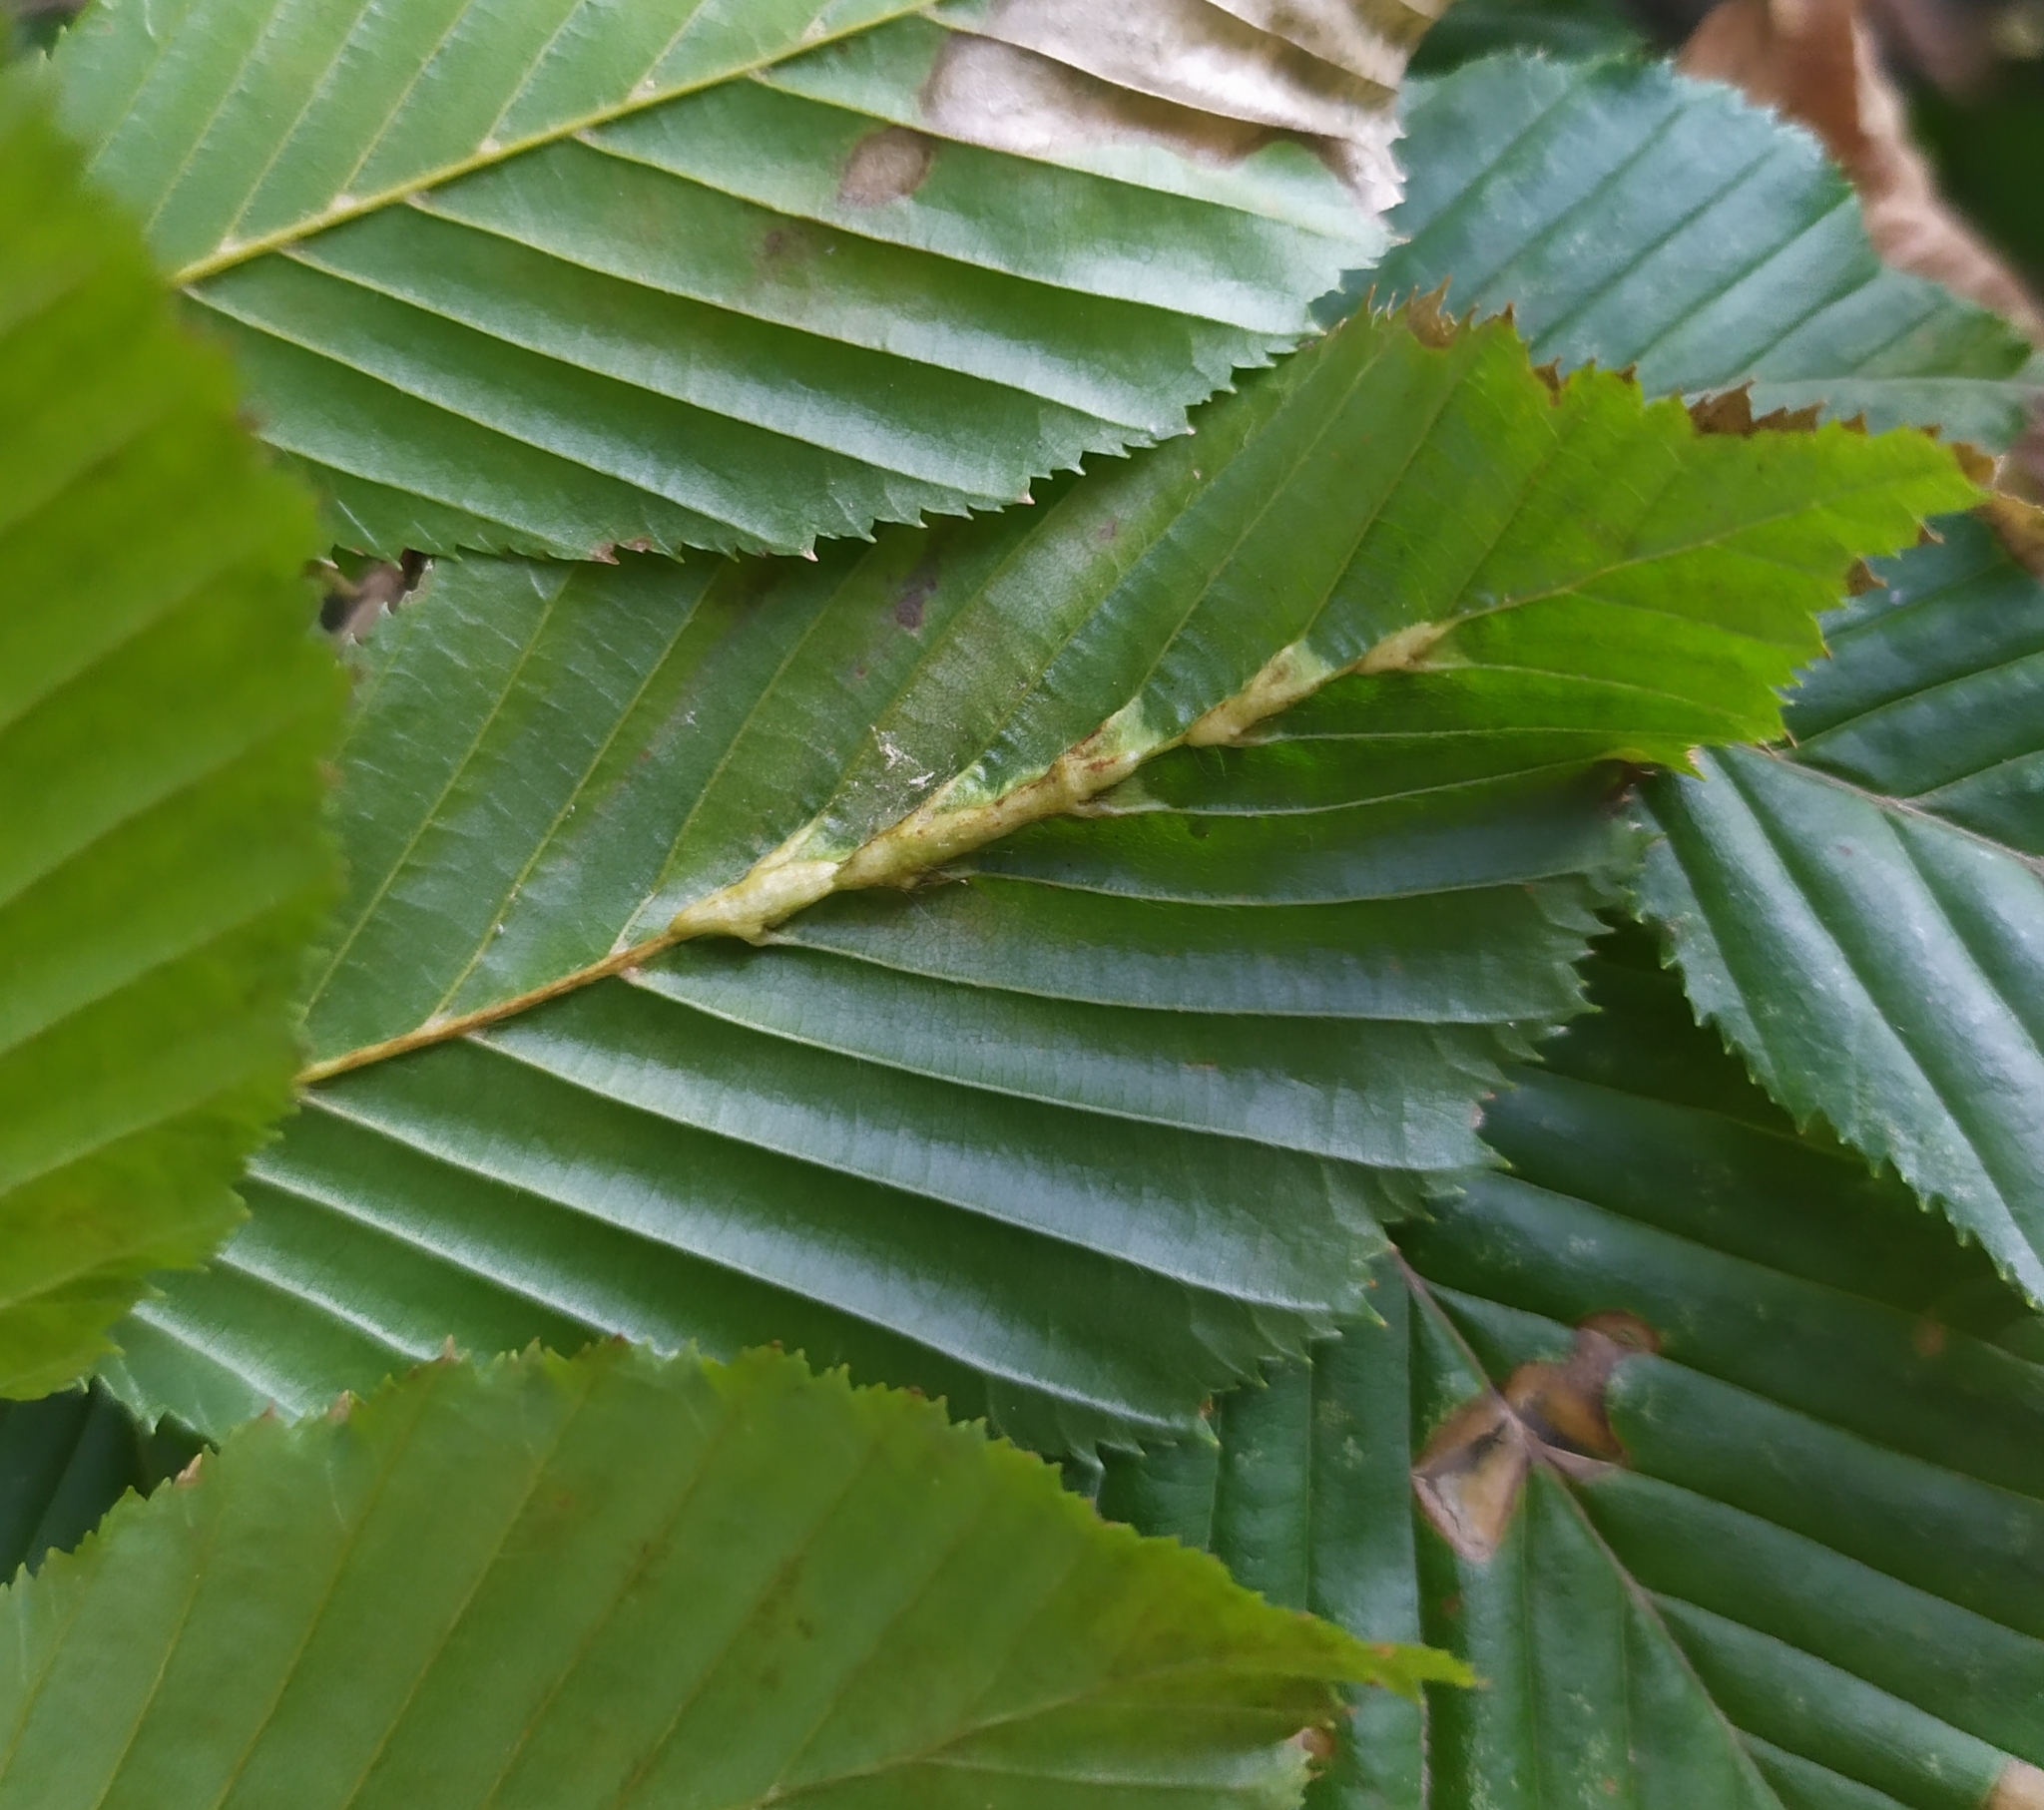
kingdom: Animalia
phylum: Arthropoda
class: Insecta
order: Diptera
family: Cecidomyiidae
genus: Zygiobia
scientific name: Zygiobia carpini
